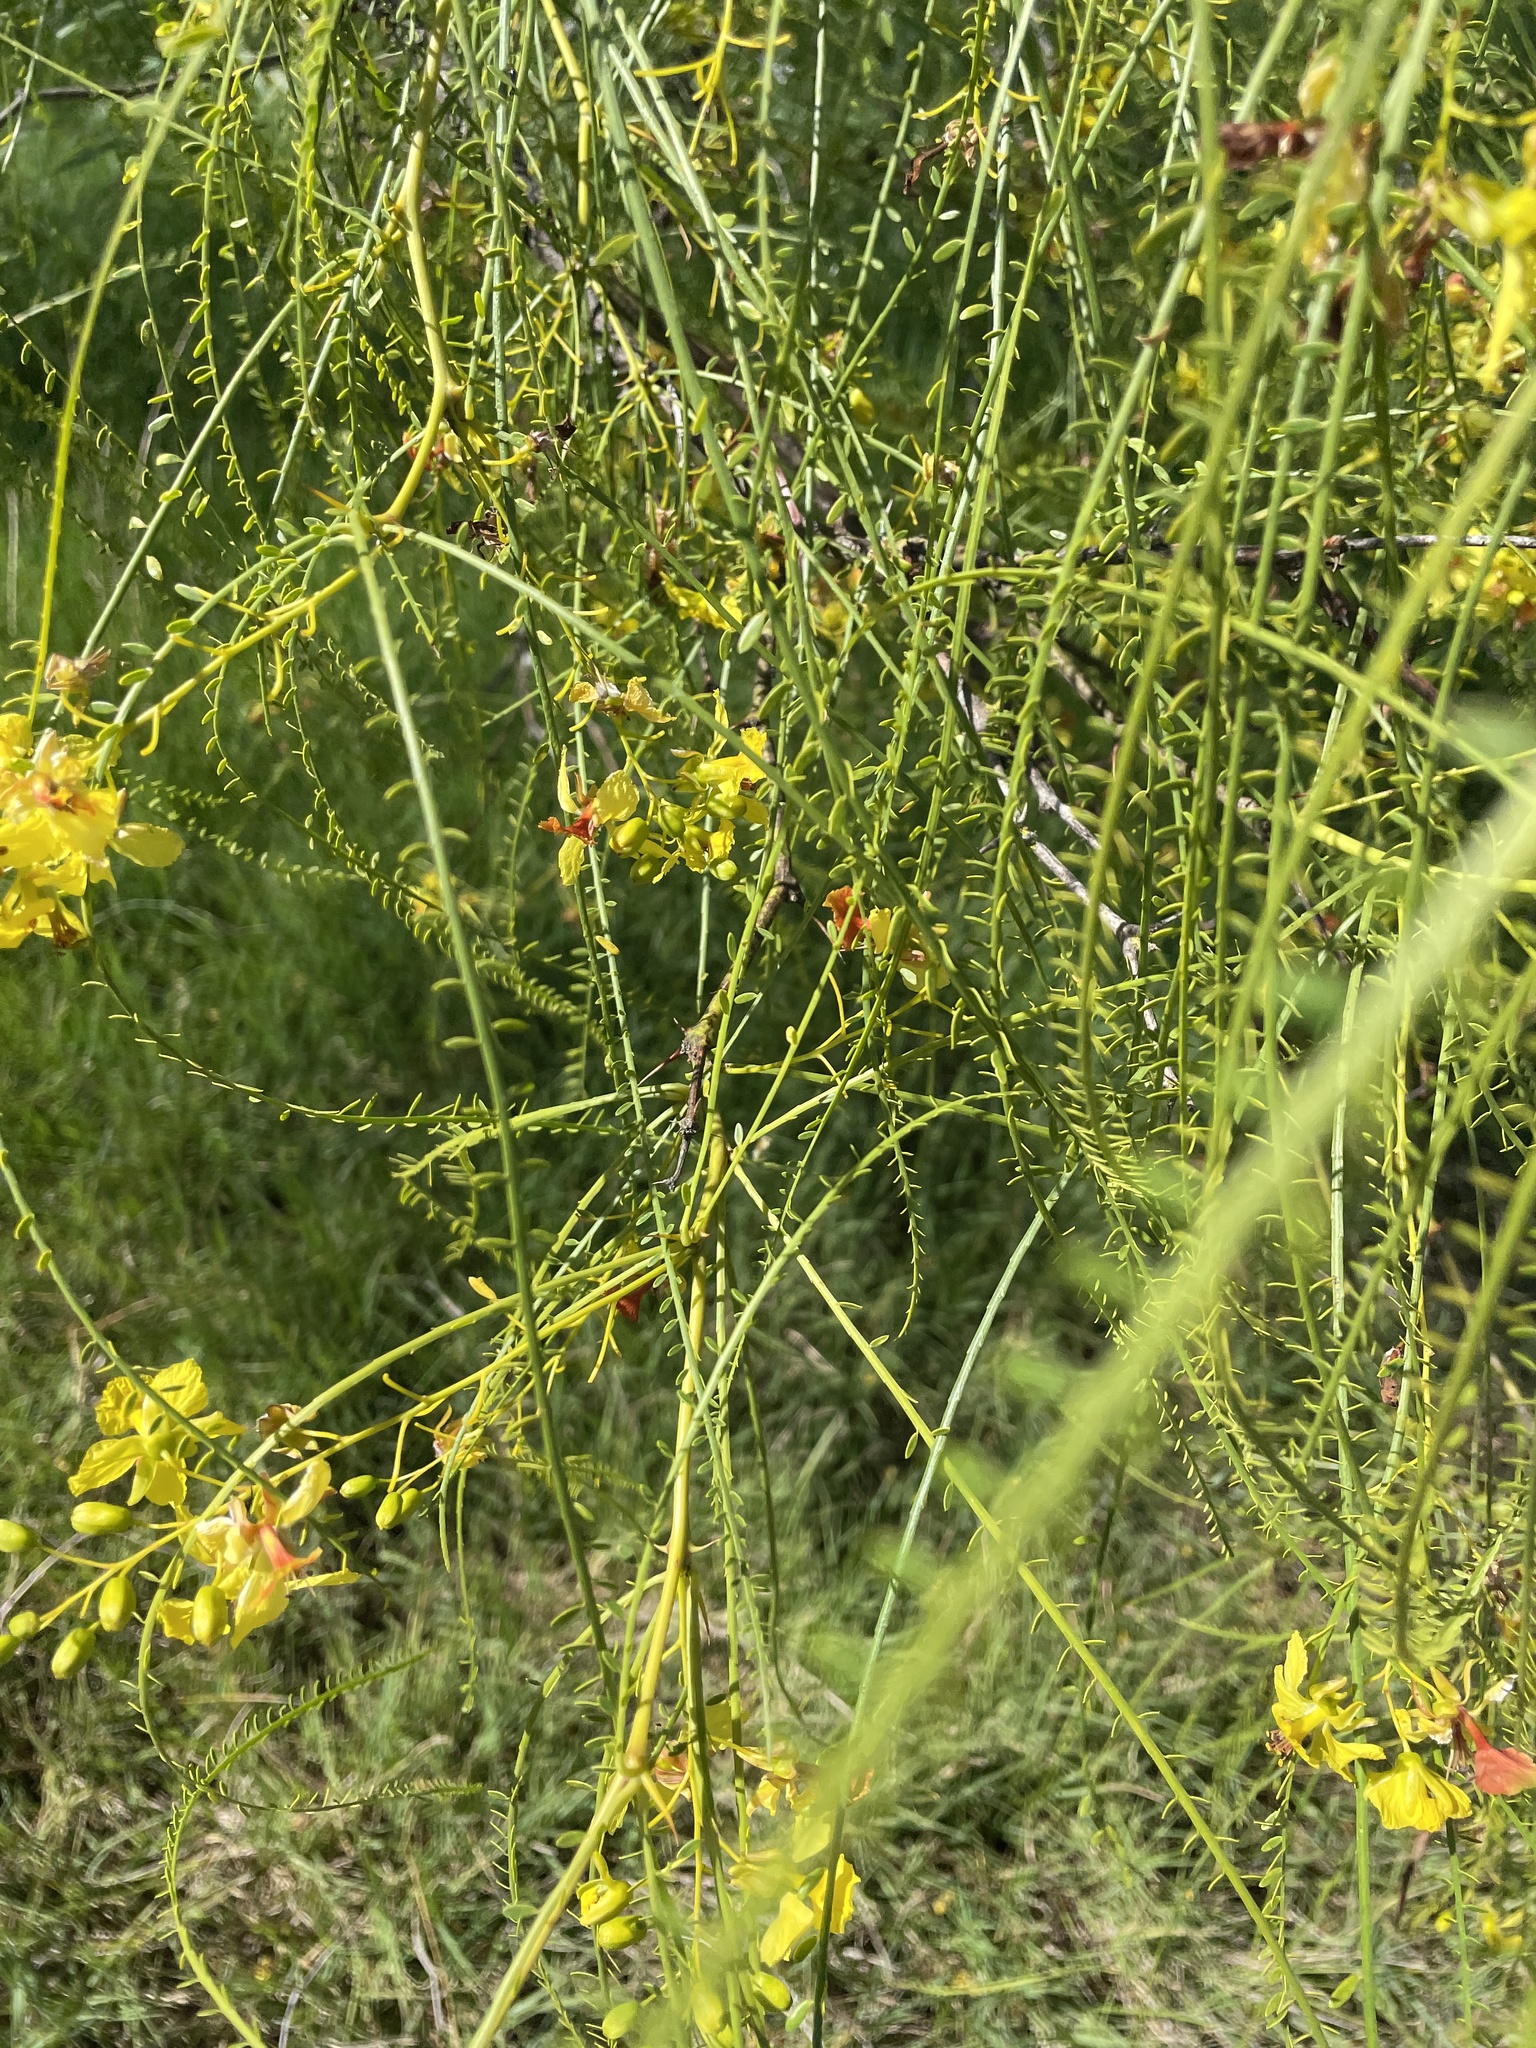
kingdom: Plantae
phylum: Tracheophyta
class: Magnoliopsida
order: Fabales
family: Fabaceae
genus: Parkinsonia
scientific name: Parkinsonia aculeata
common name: Jerusalem thorn
